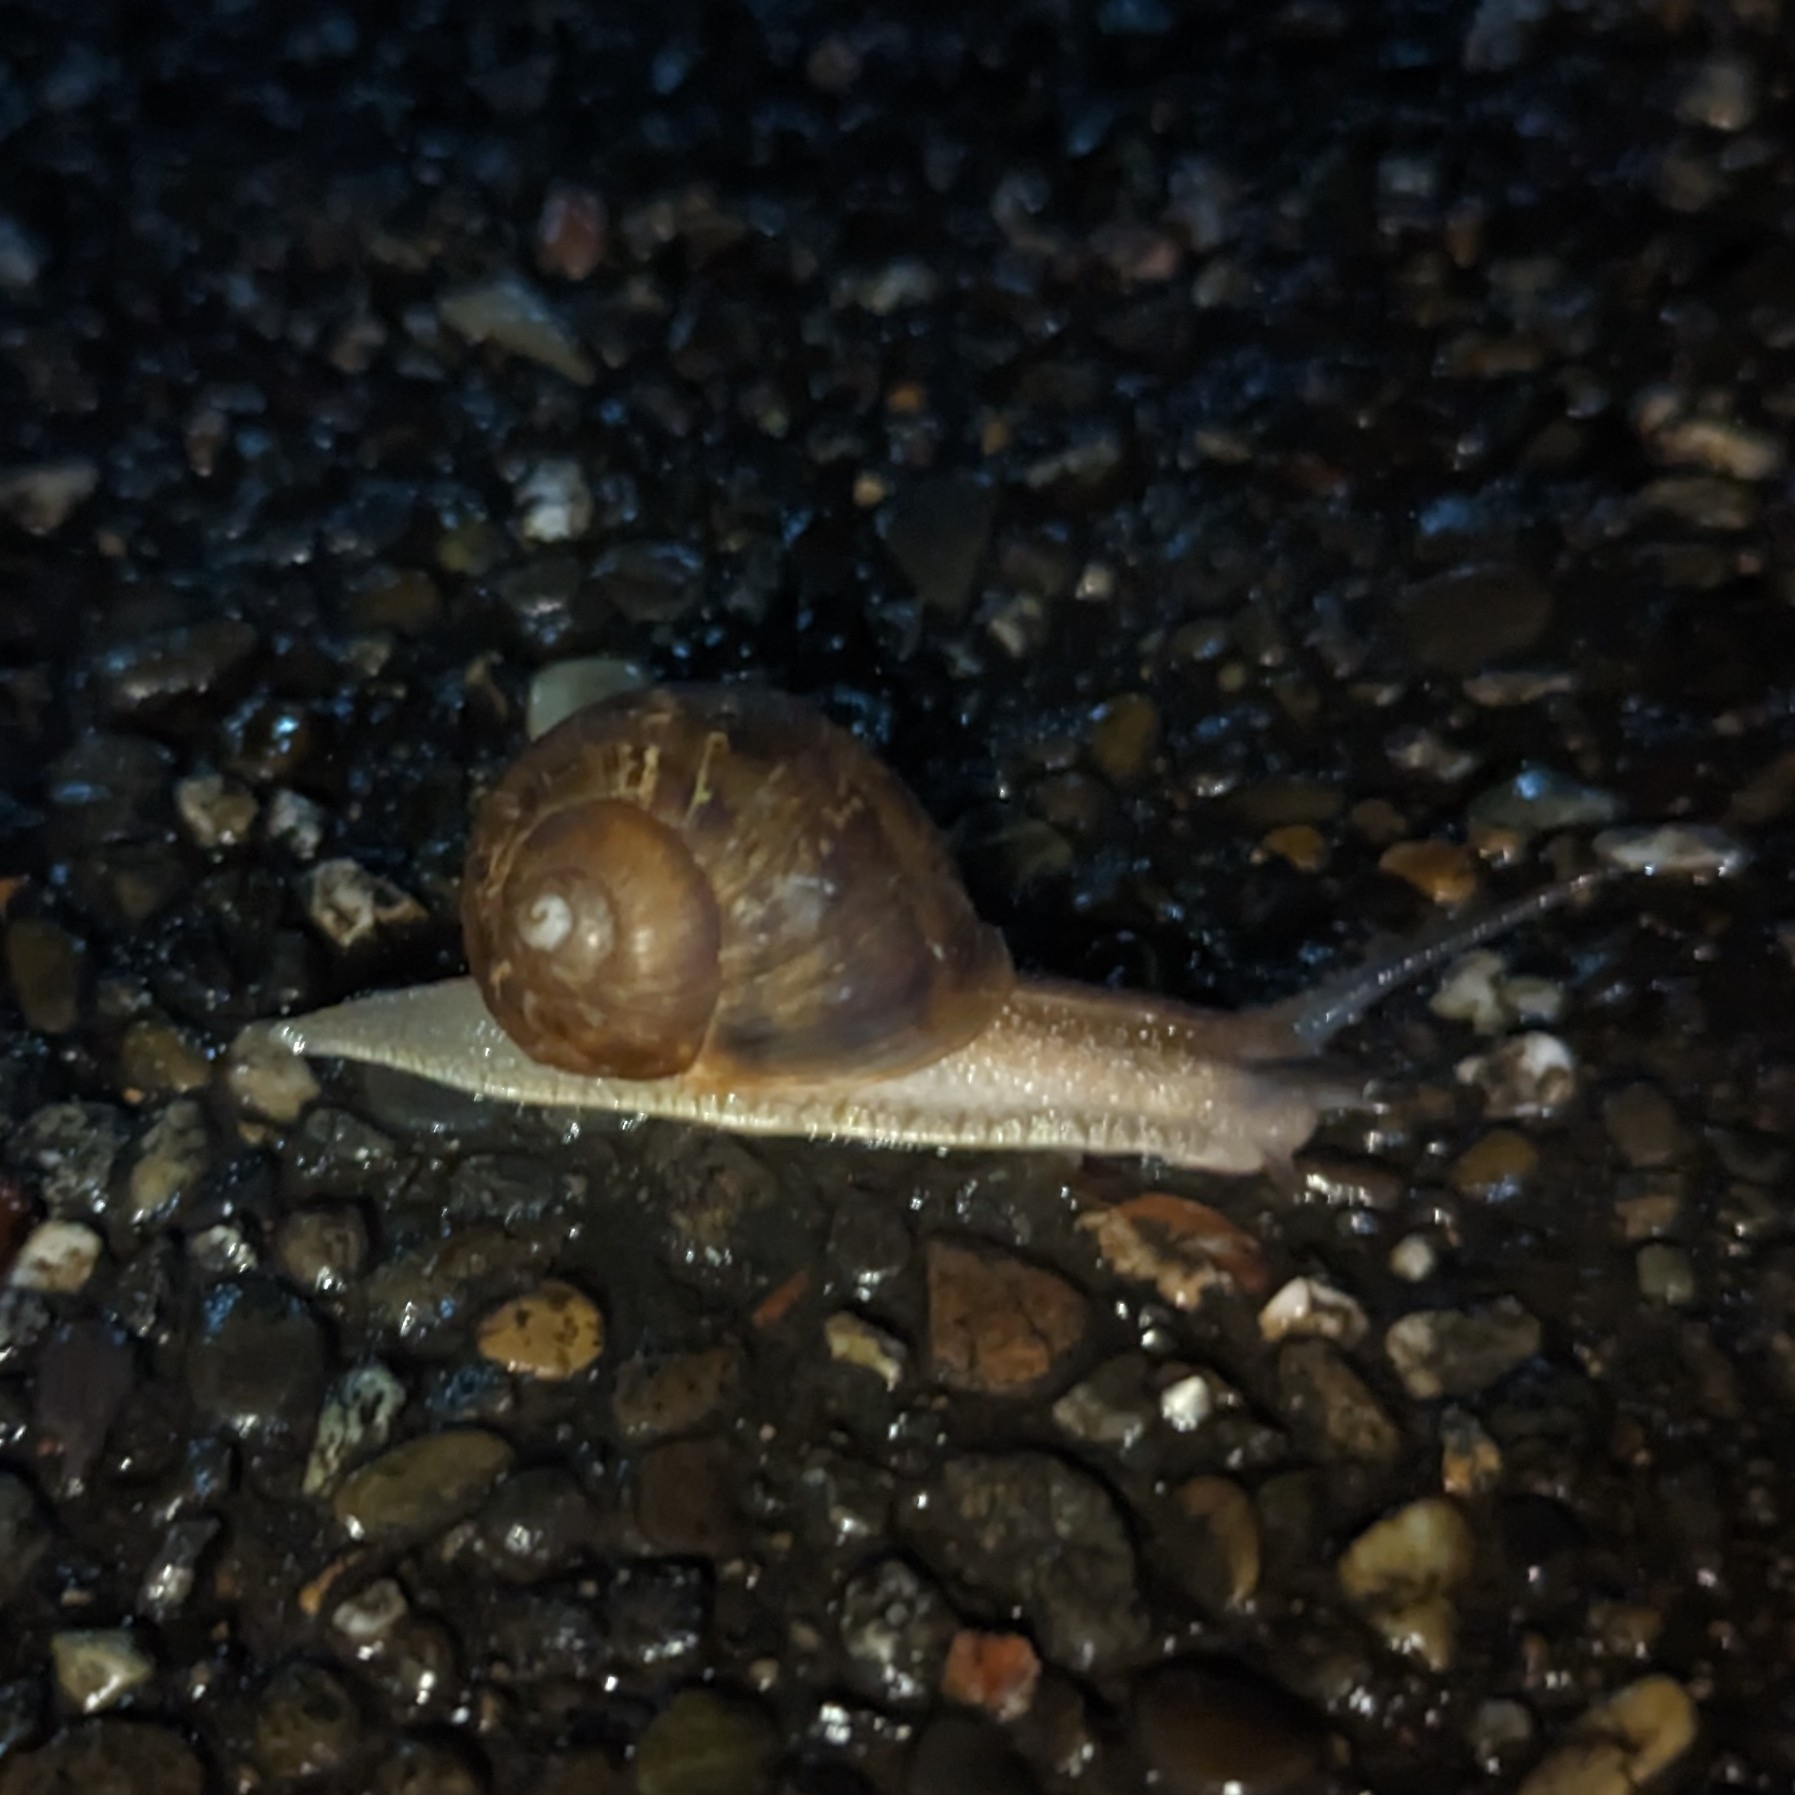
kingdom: Animalia
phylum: Mollusca
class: Gastropoda
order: Stylommatophora
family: Helicidae
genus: Cornu
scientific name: Cornu aspersum
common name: Brown garden snail
